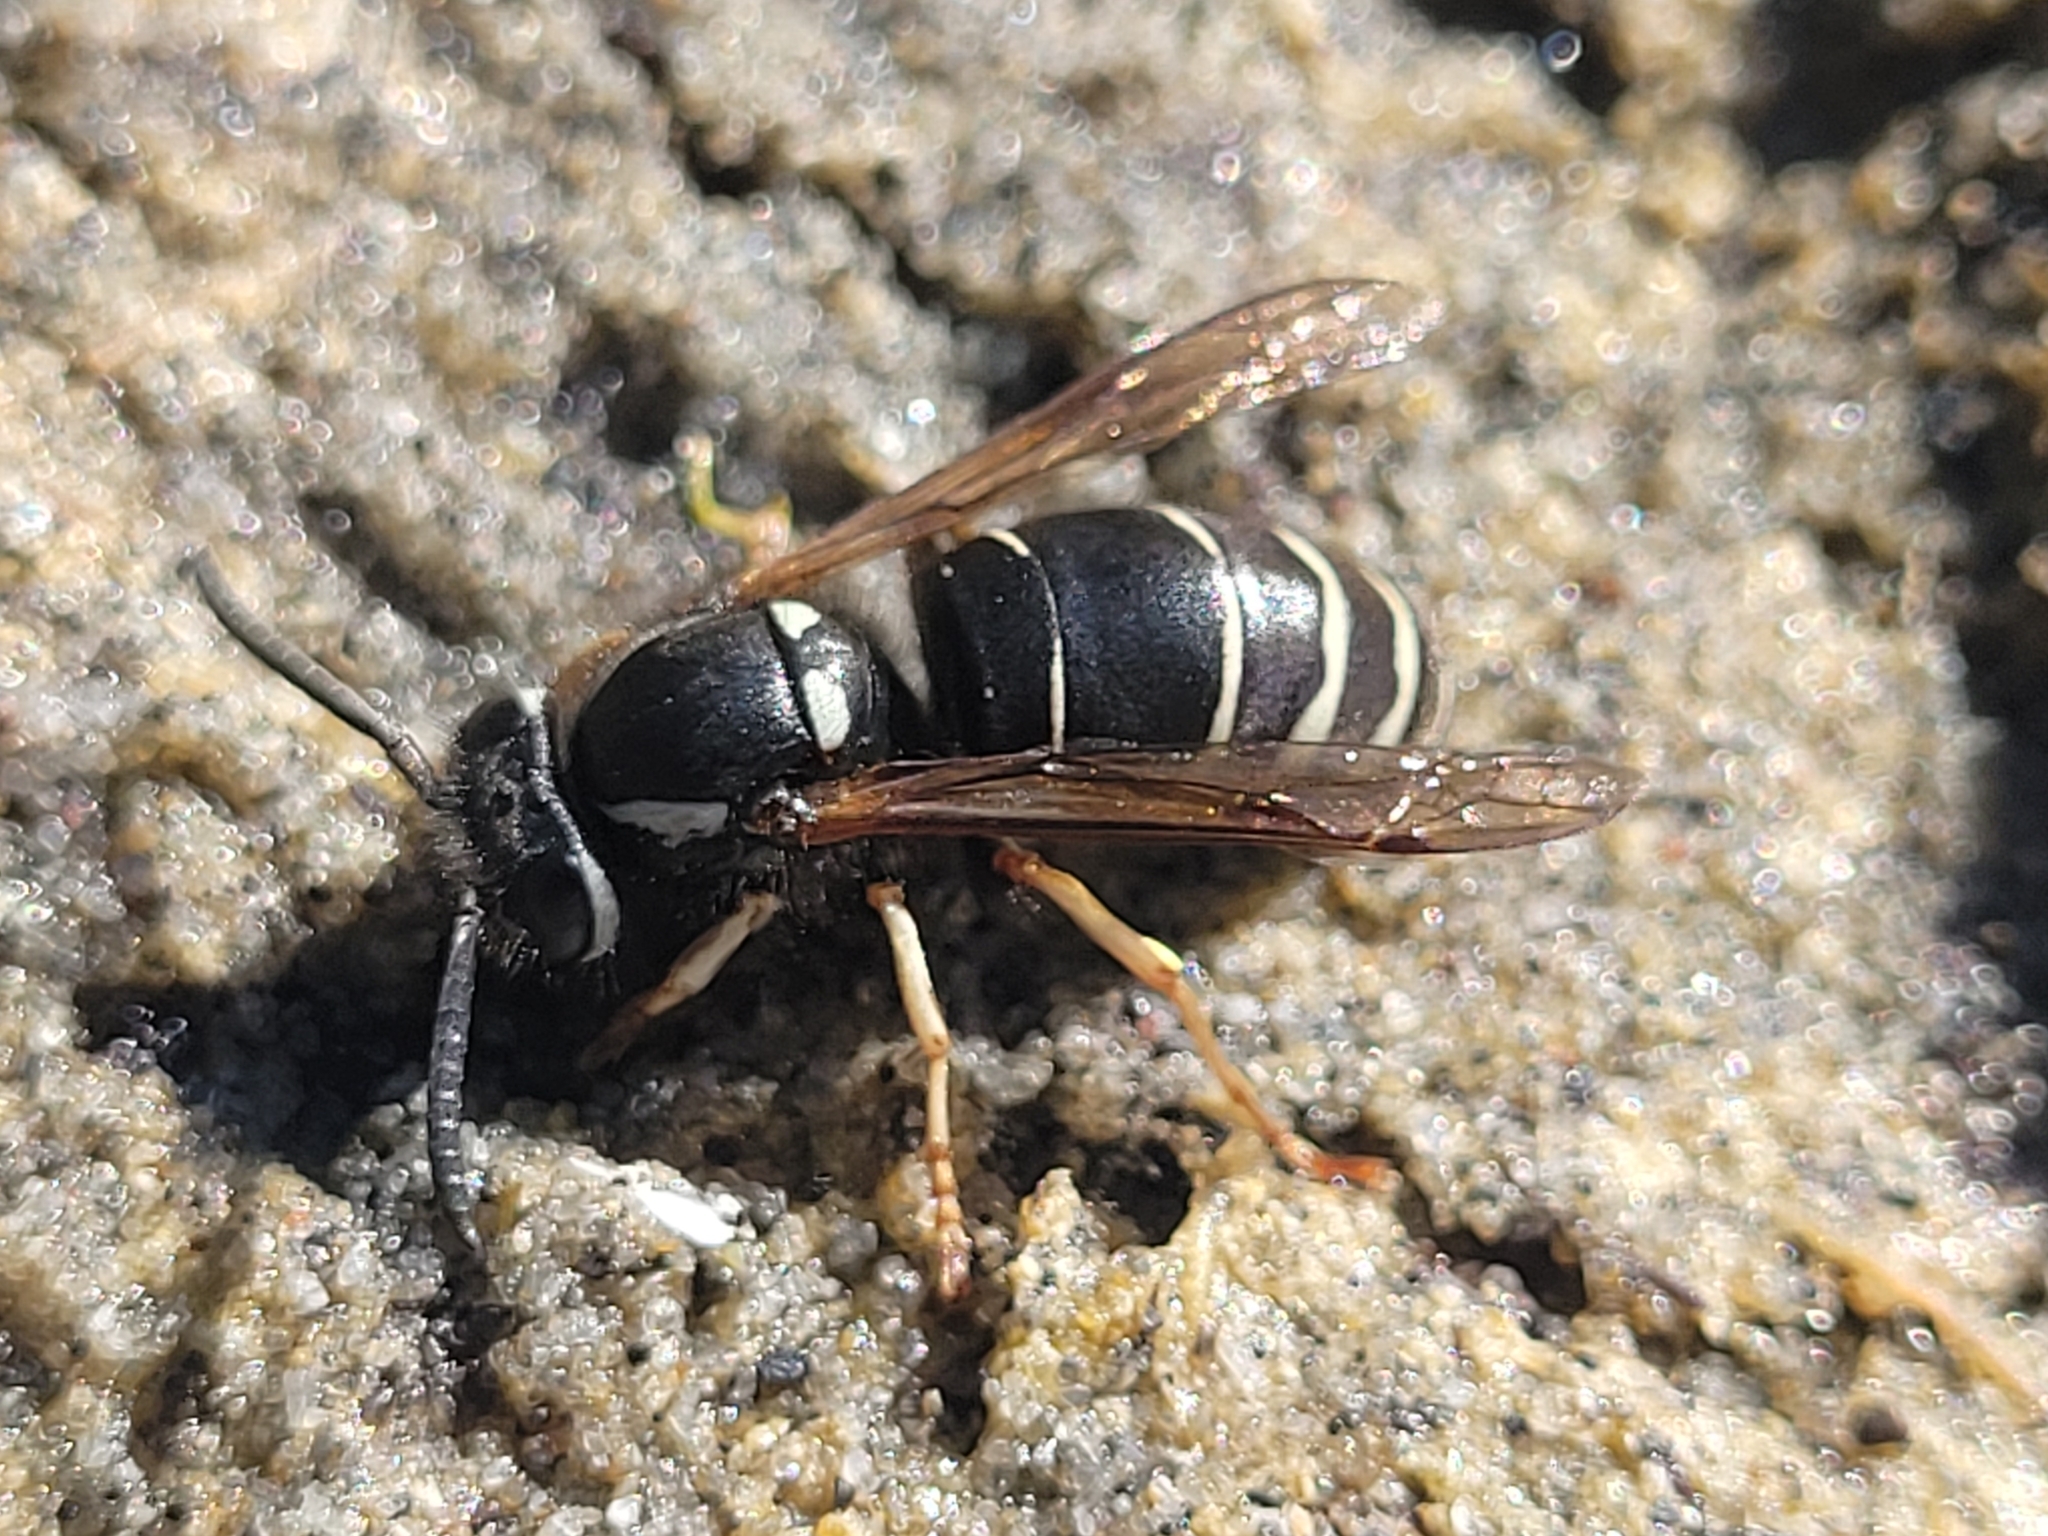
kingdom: Animalia
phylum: Arthropoda
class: Insecta
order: Hymenoptera
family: Vespidae
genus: Vespula
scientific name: Vespula consobrina
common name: Blackjacket
